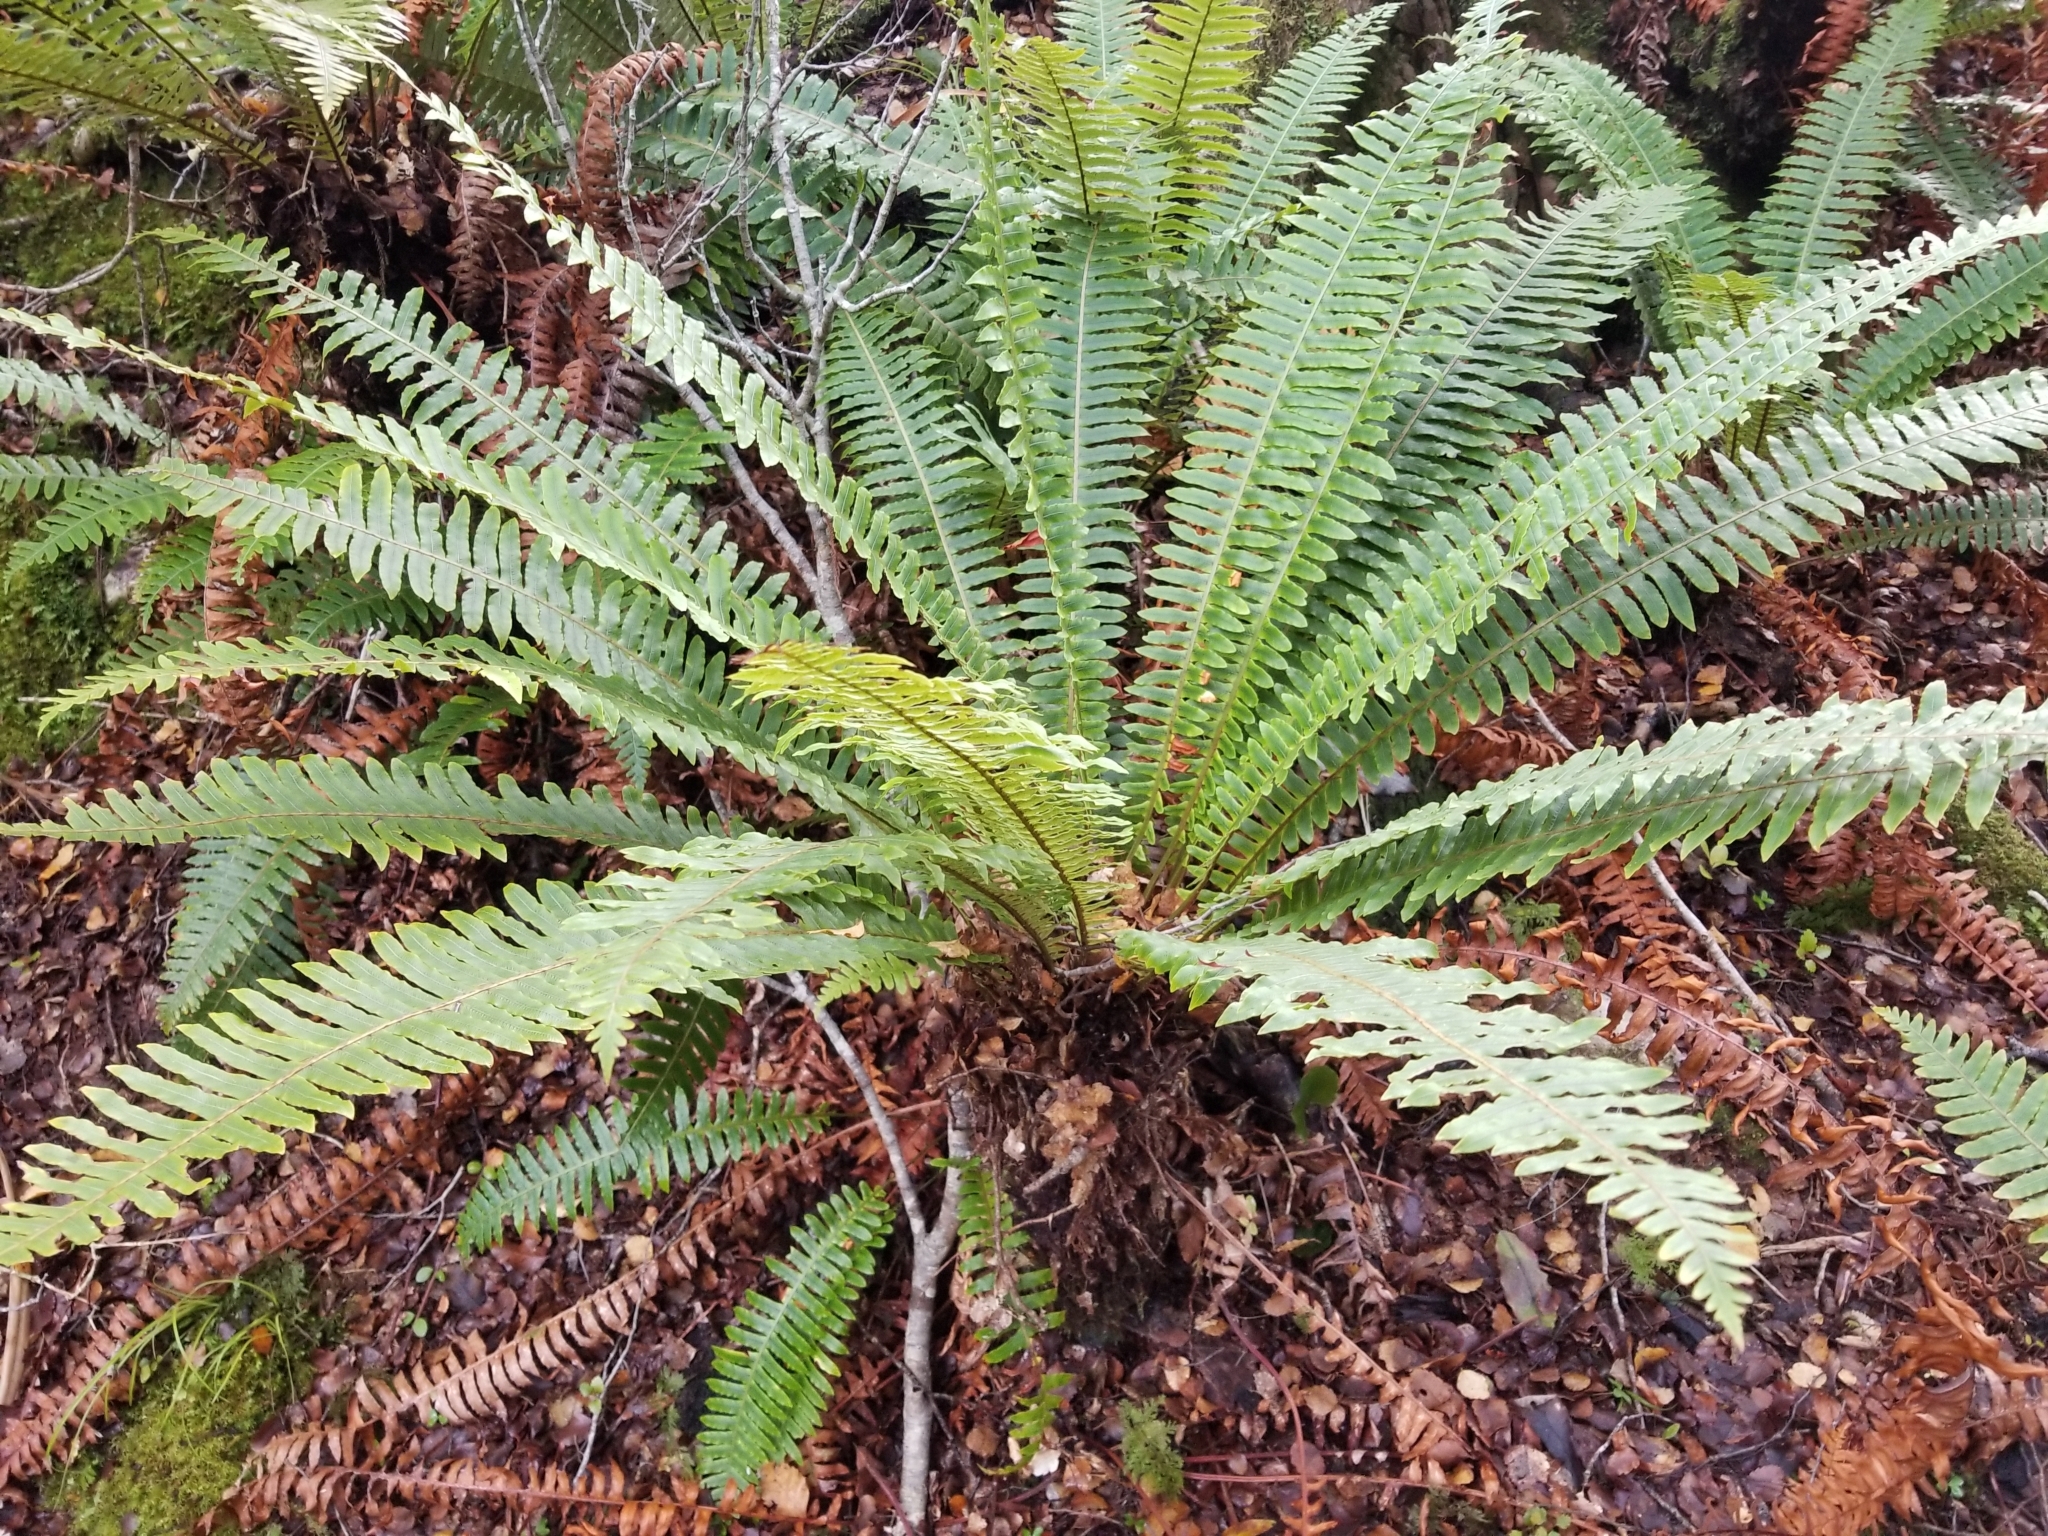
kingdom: Plantae
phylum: Tracheophyta
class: Polypodiopsida
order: Polypodiales
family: Blechnaceae
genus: Lomaria
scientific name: Lomaria discolor
